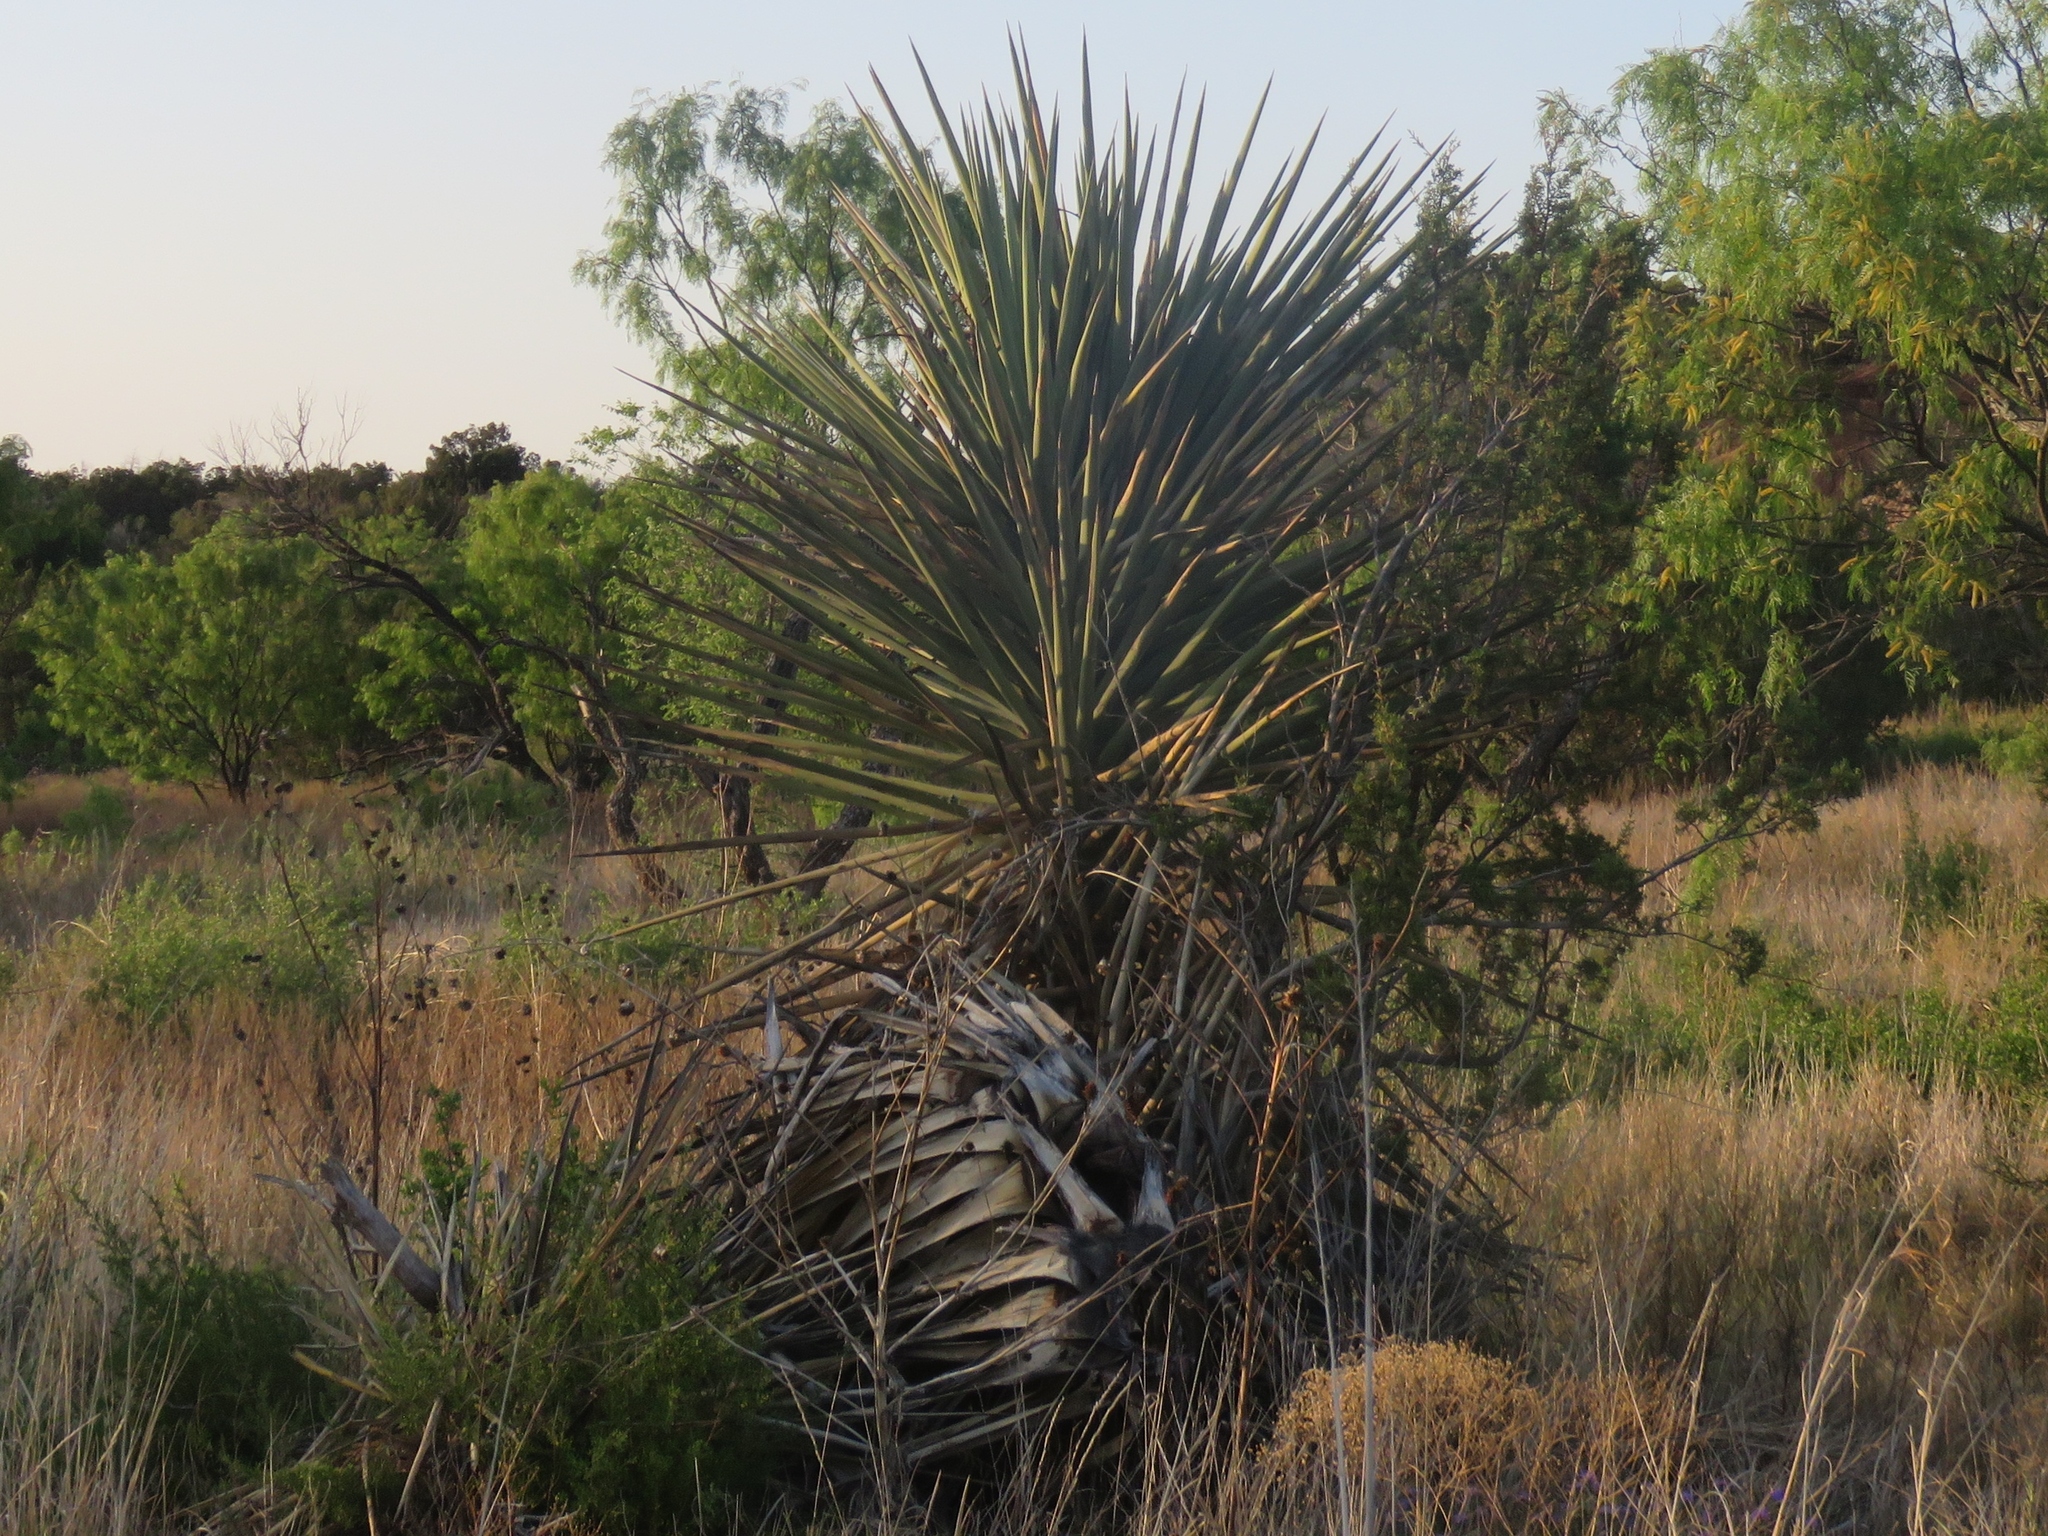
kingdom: Plantae
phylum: Tracheophyta
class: Liliopsida
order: Asparagales
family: Asparagaceae
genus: Yucca
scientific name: Yucca treculiana
